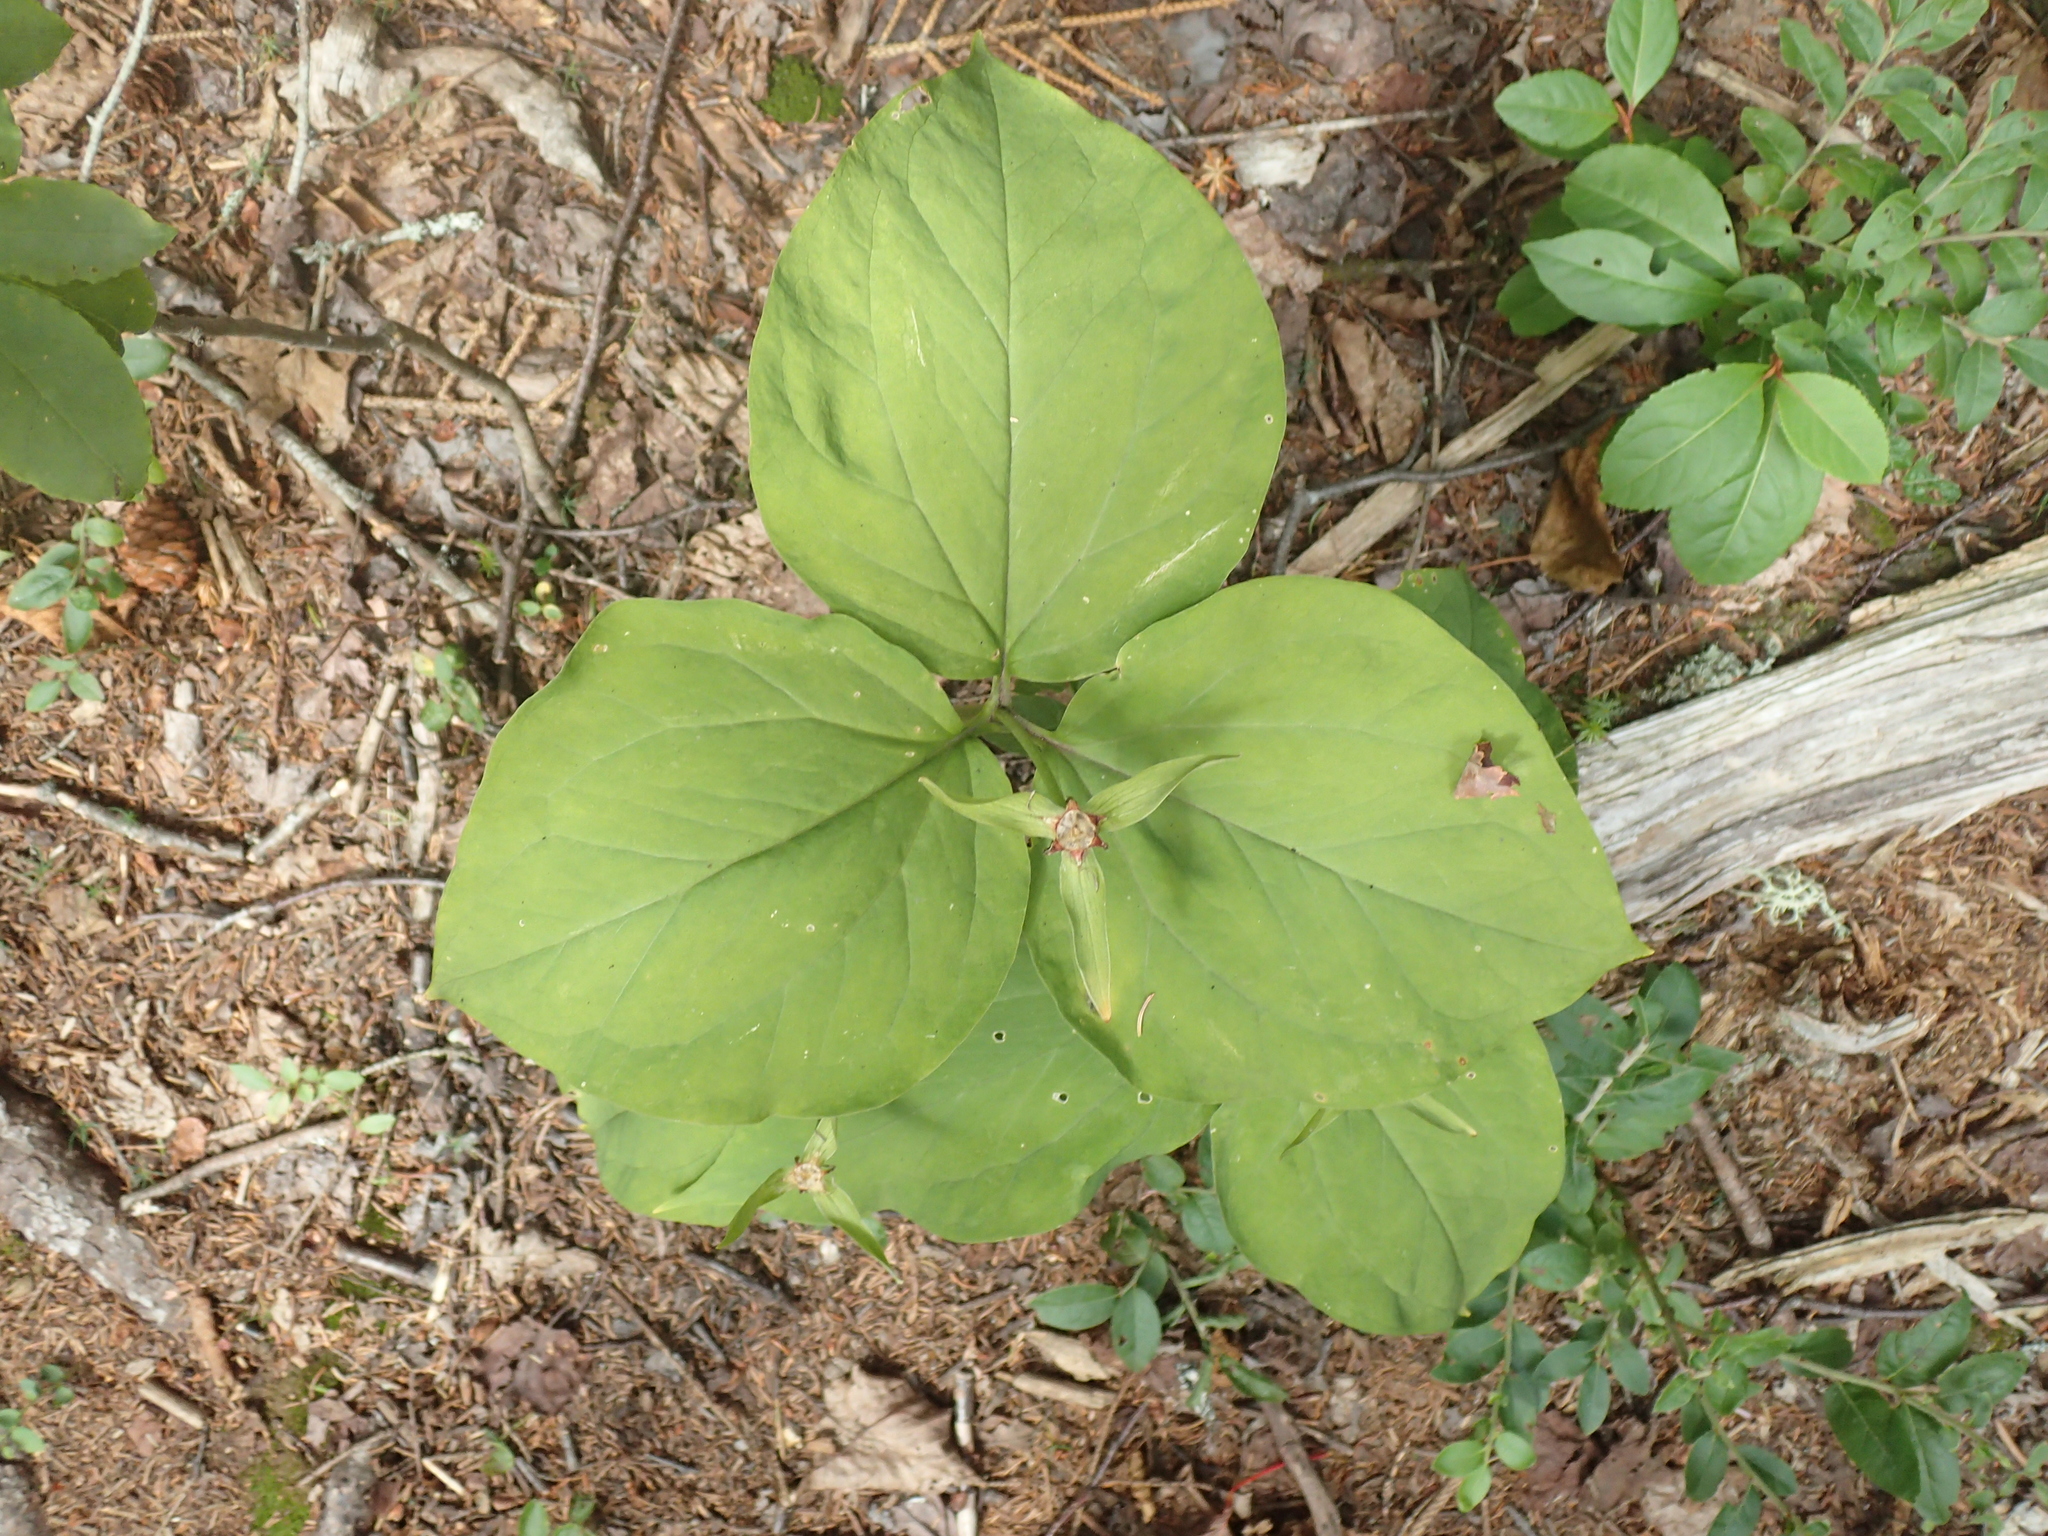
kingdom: Plantae
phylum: Tracheophyta
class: Liliopsida
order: Liliales
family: Melanthiaceae
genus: Trillium
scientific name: Trillium undulatum
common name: Paint trillium
